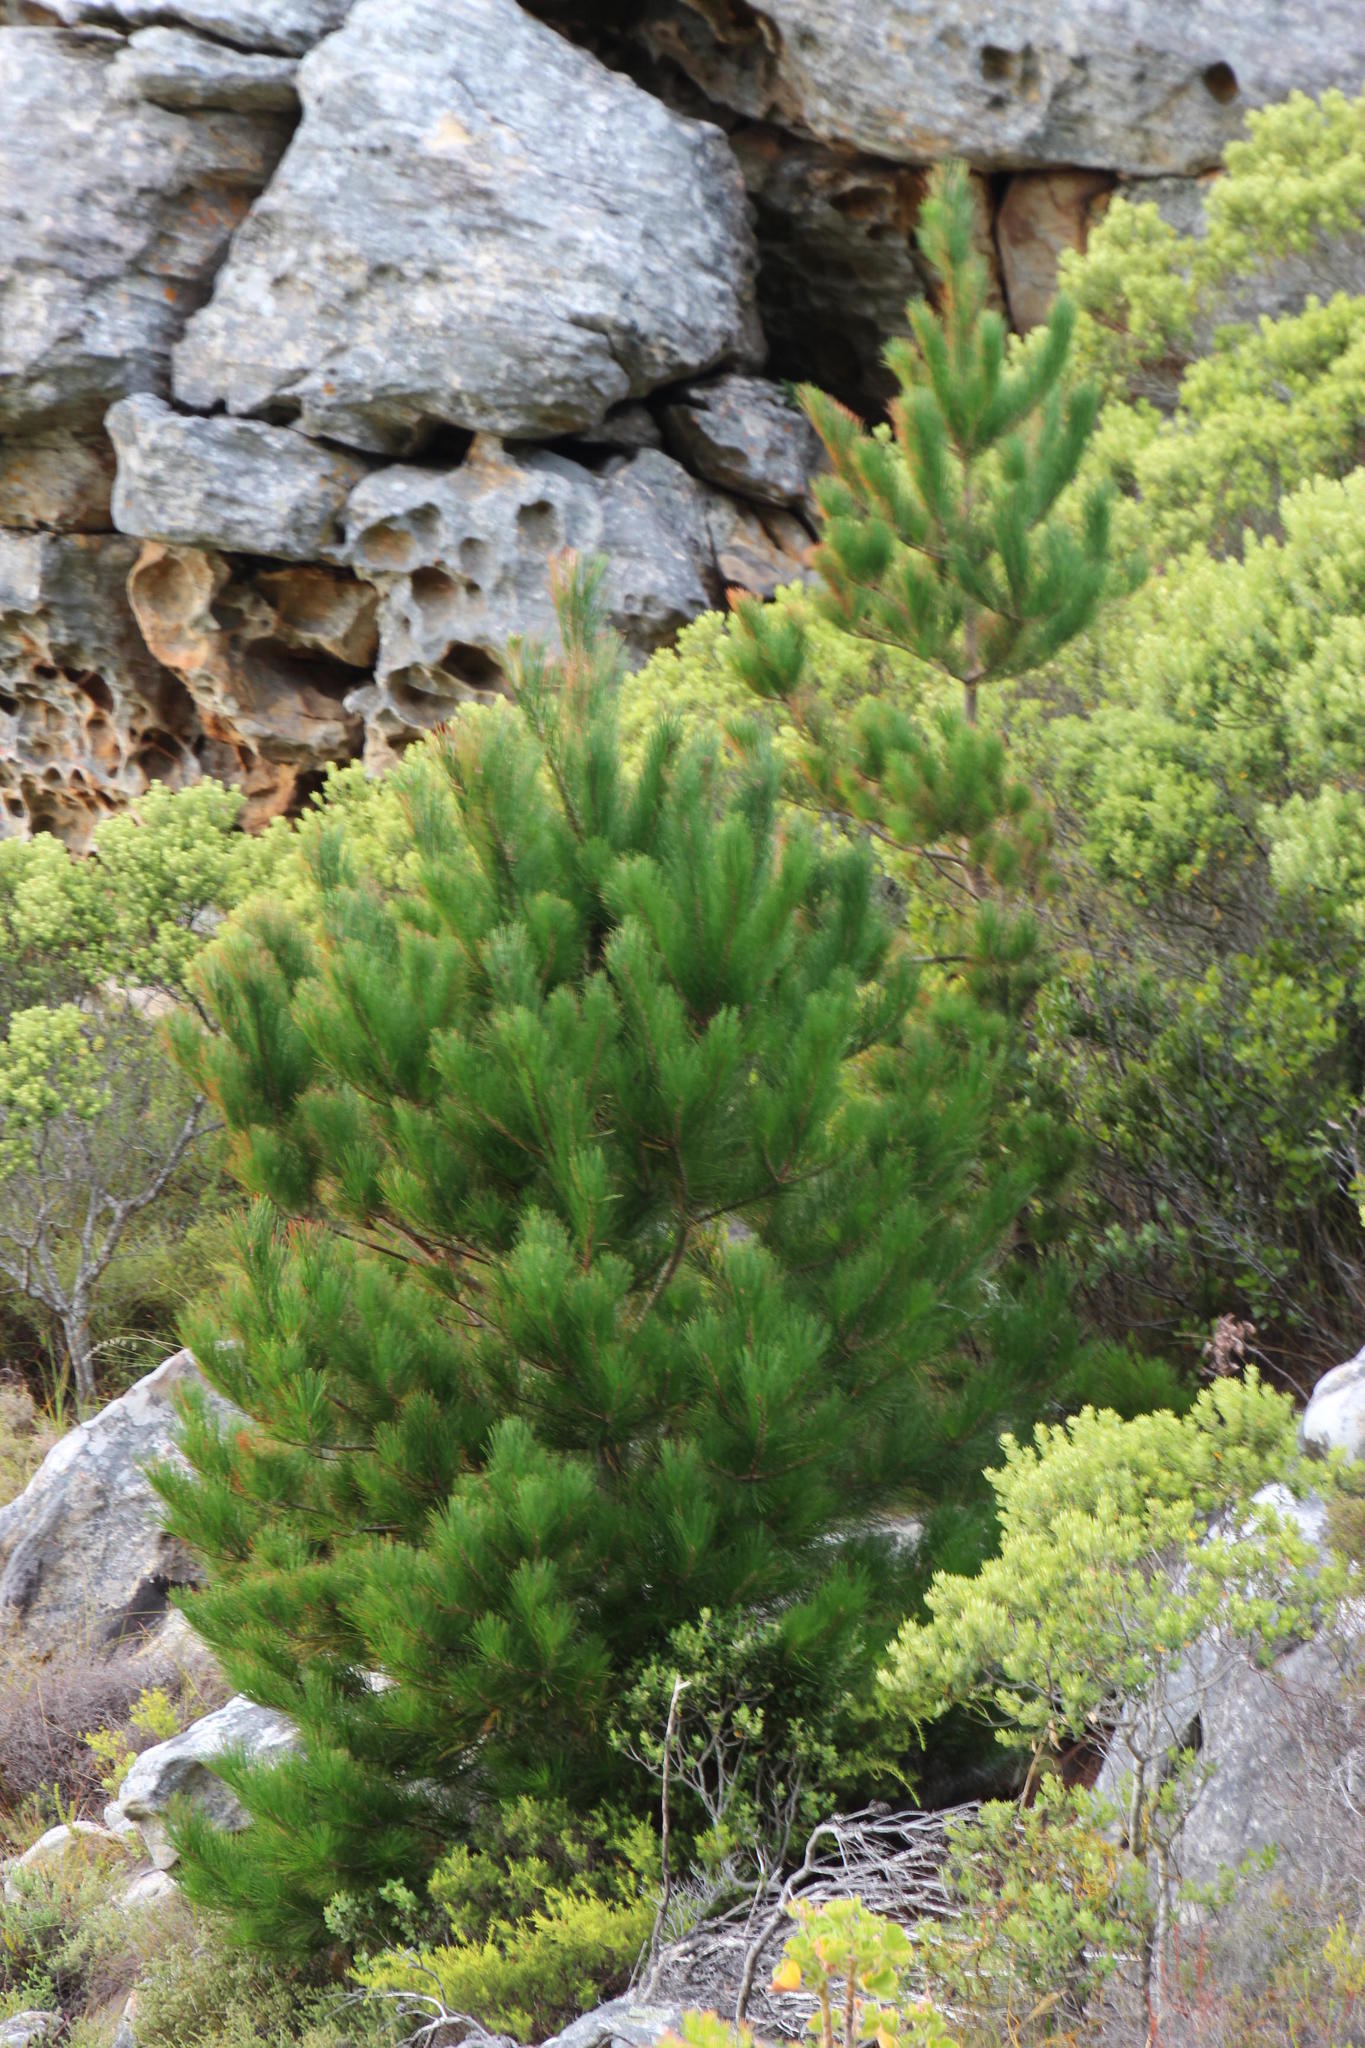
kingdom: Plantae
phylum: Tracheophyta
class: Pinopsida
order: Pinales
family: Pinaceae
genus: Pinus
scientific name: Pinus radiata
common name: Monterey pine
